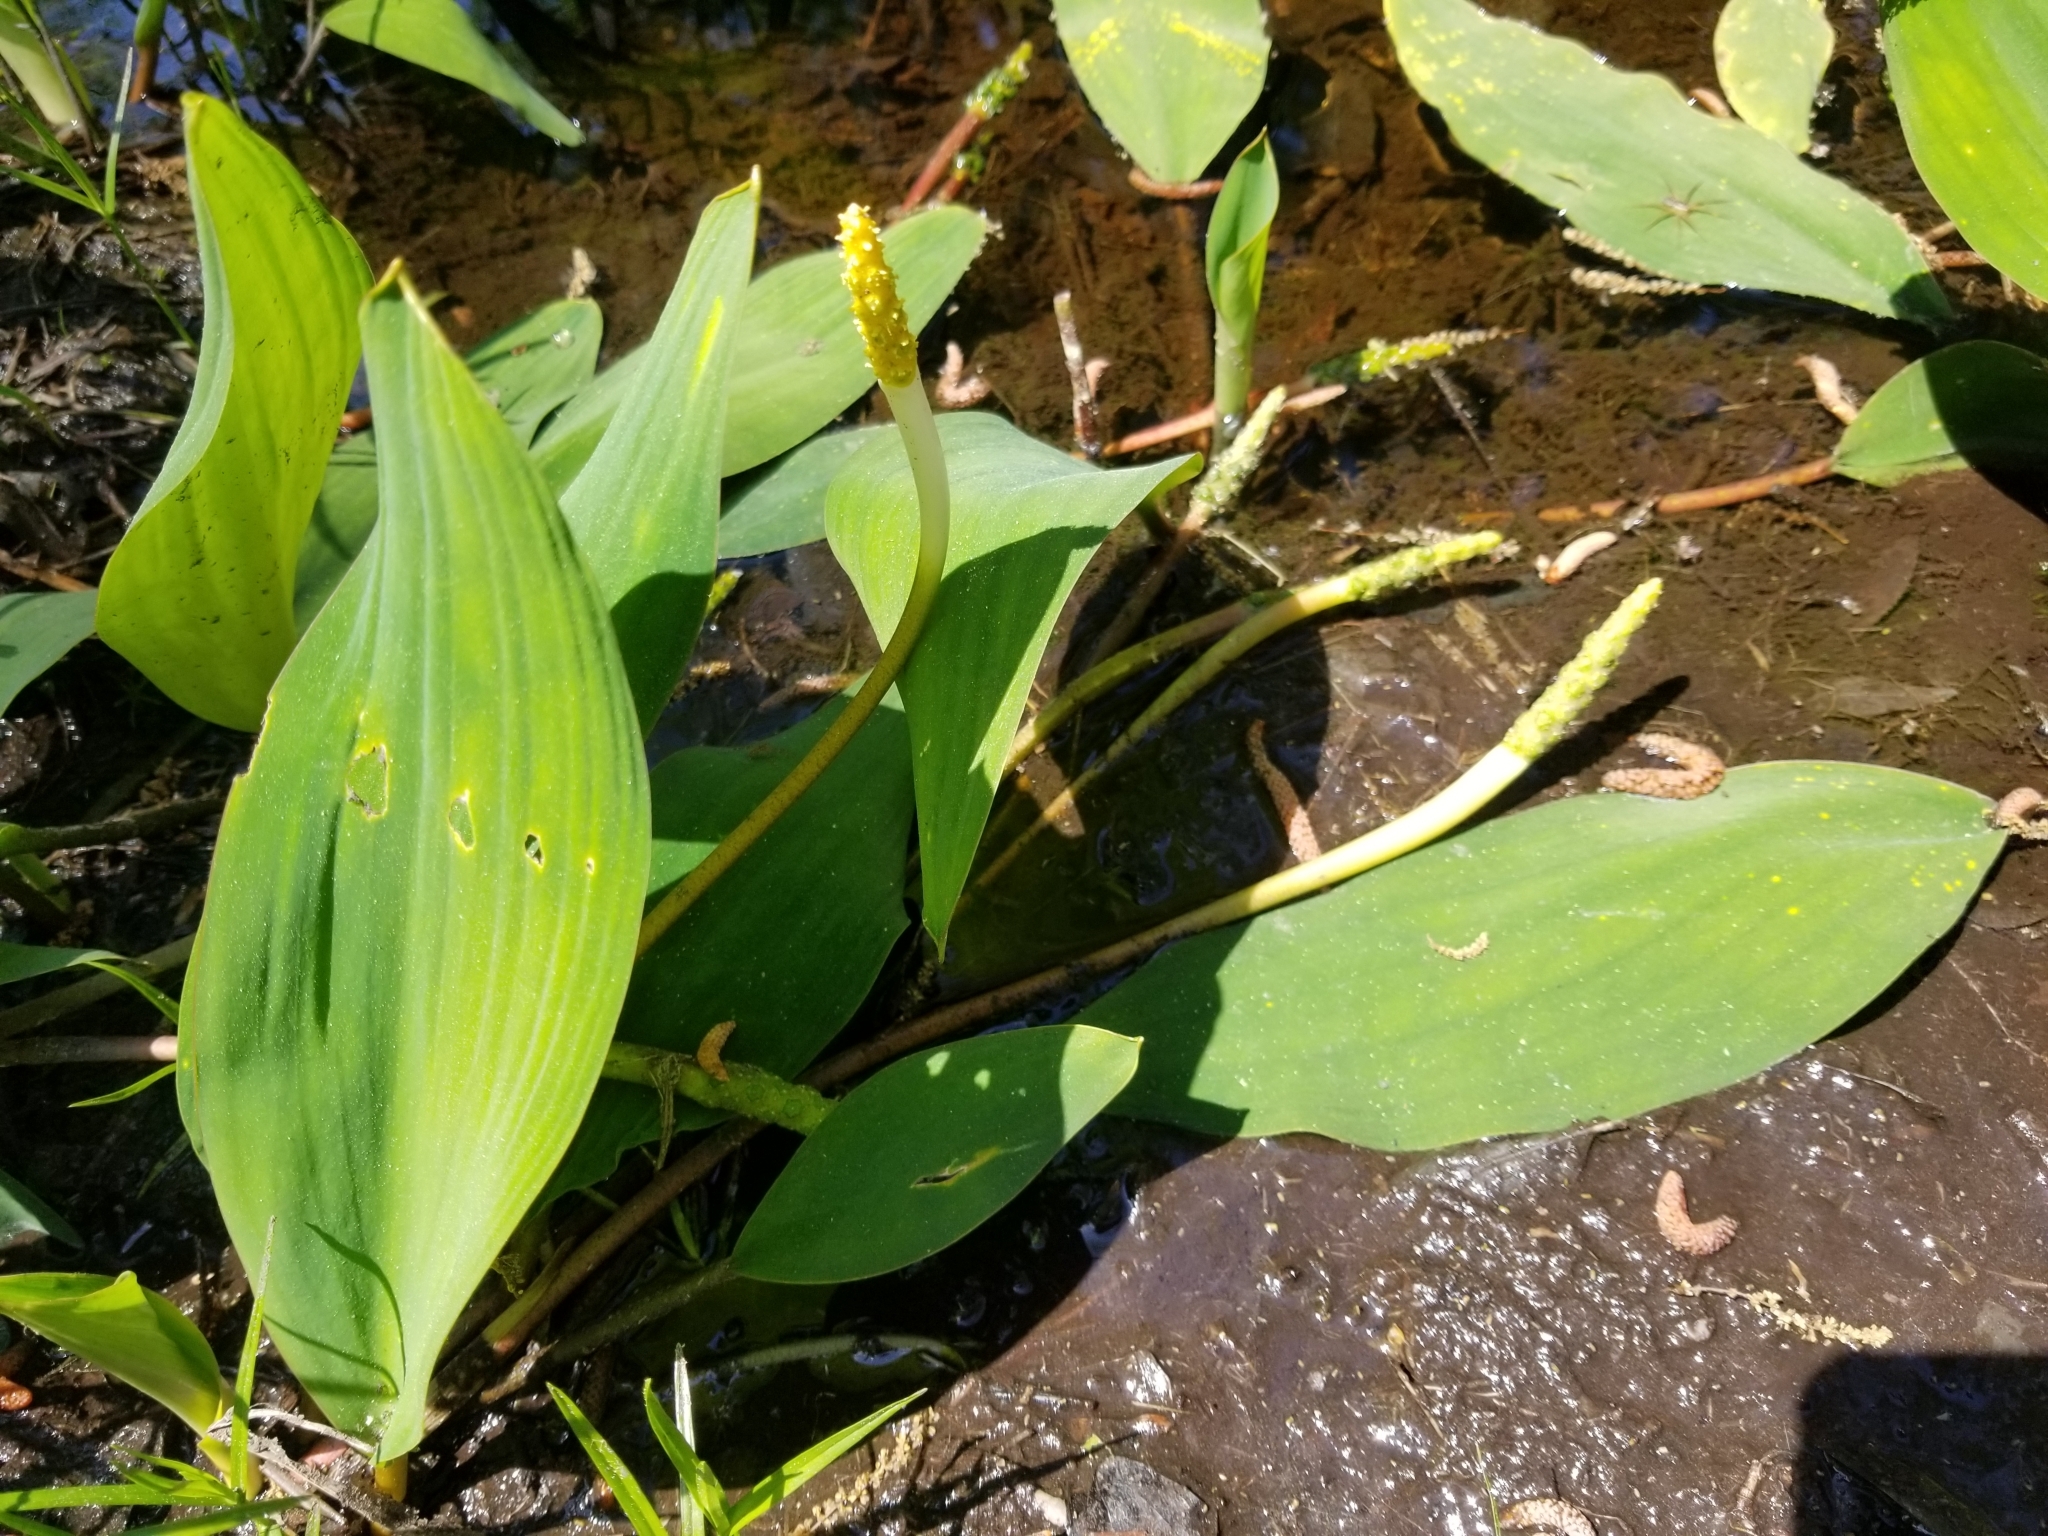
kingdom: Plantae
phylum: Tracheophyta
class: Liliopsida
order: Alismatales
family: Araceae
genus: Orontium
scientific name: Orontium aquaticum
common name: Golden-club
